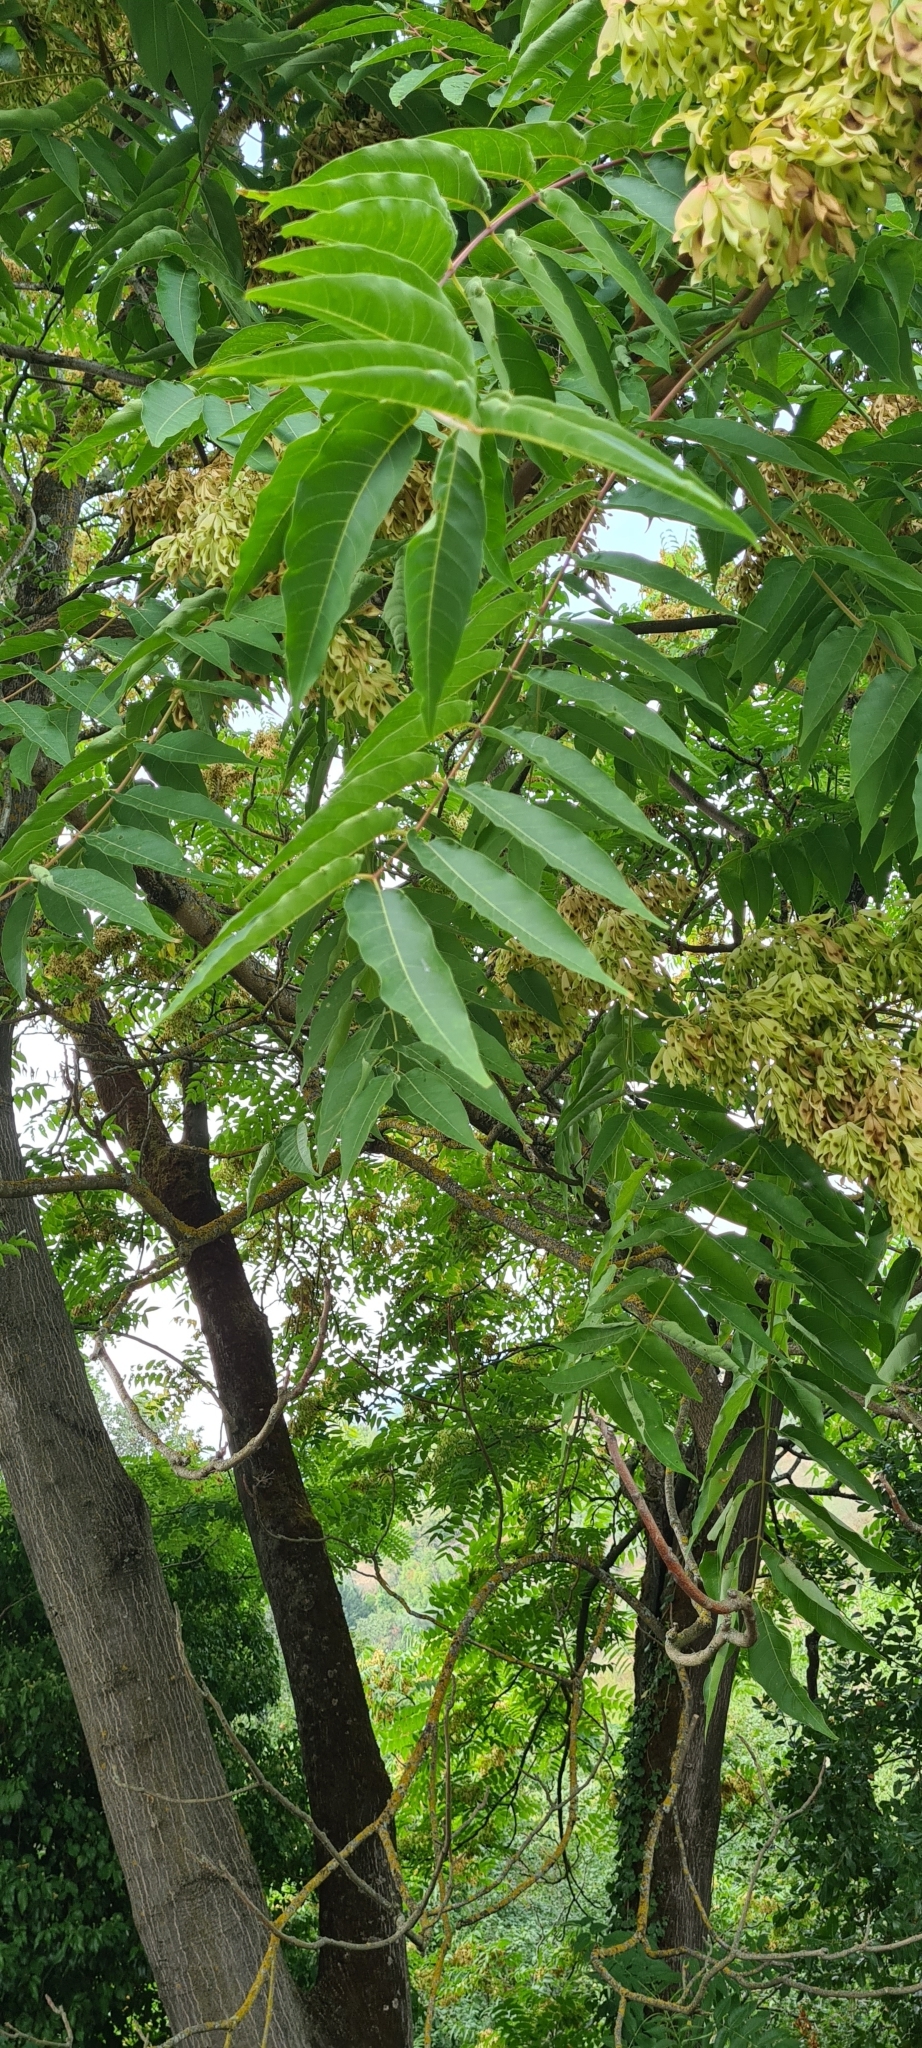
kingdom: Plantae
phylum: Tracheophyta
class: Magnoliopsida
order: Sapindales
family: Simaroubaceae
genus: Ailanthus
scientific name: Ailanthus altissima
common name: Tree-of-heaven
